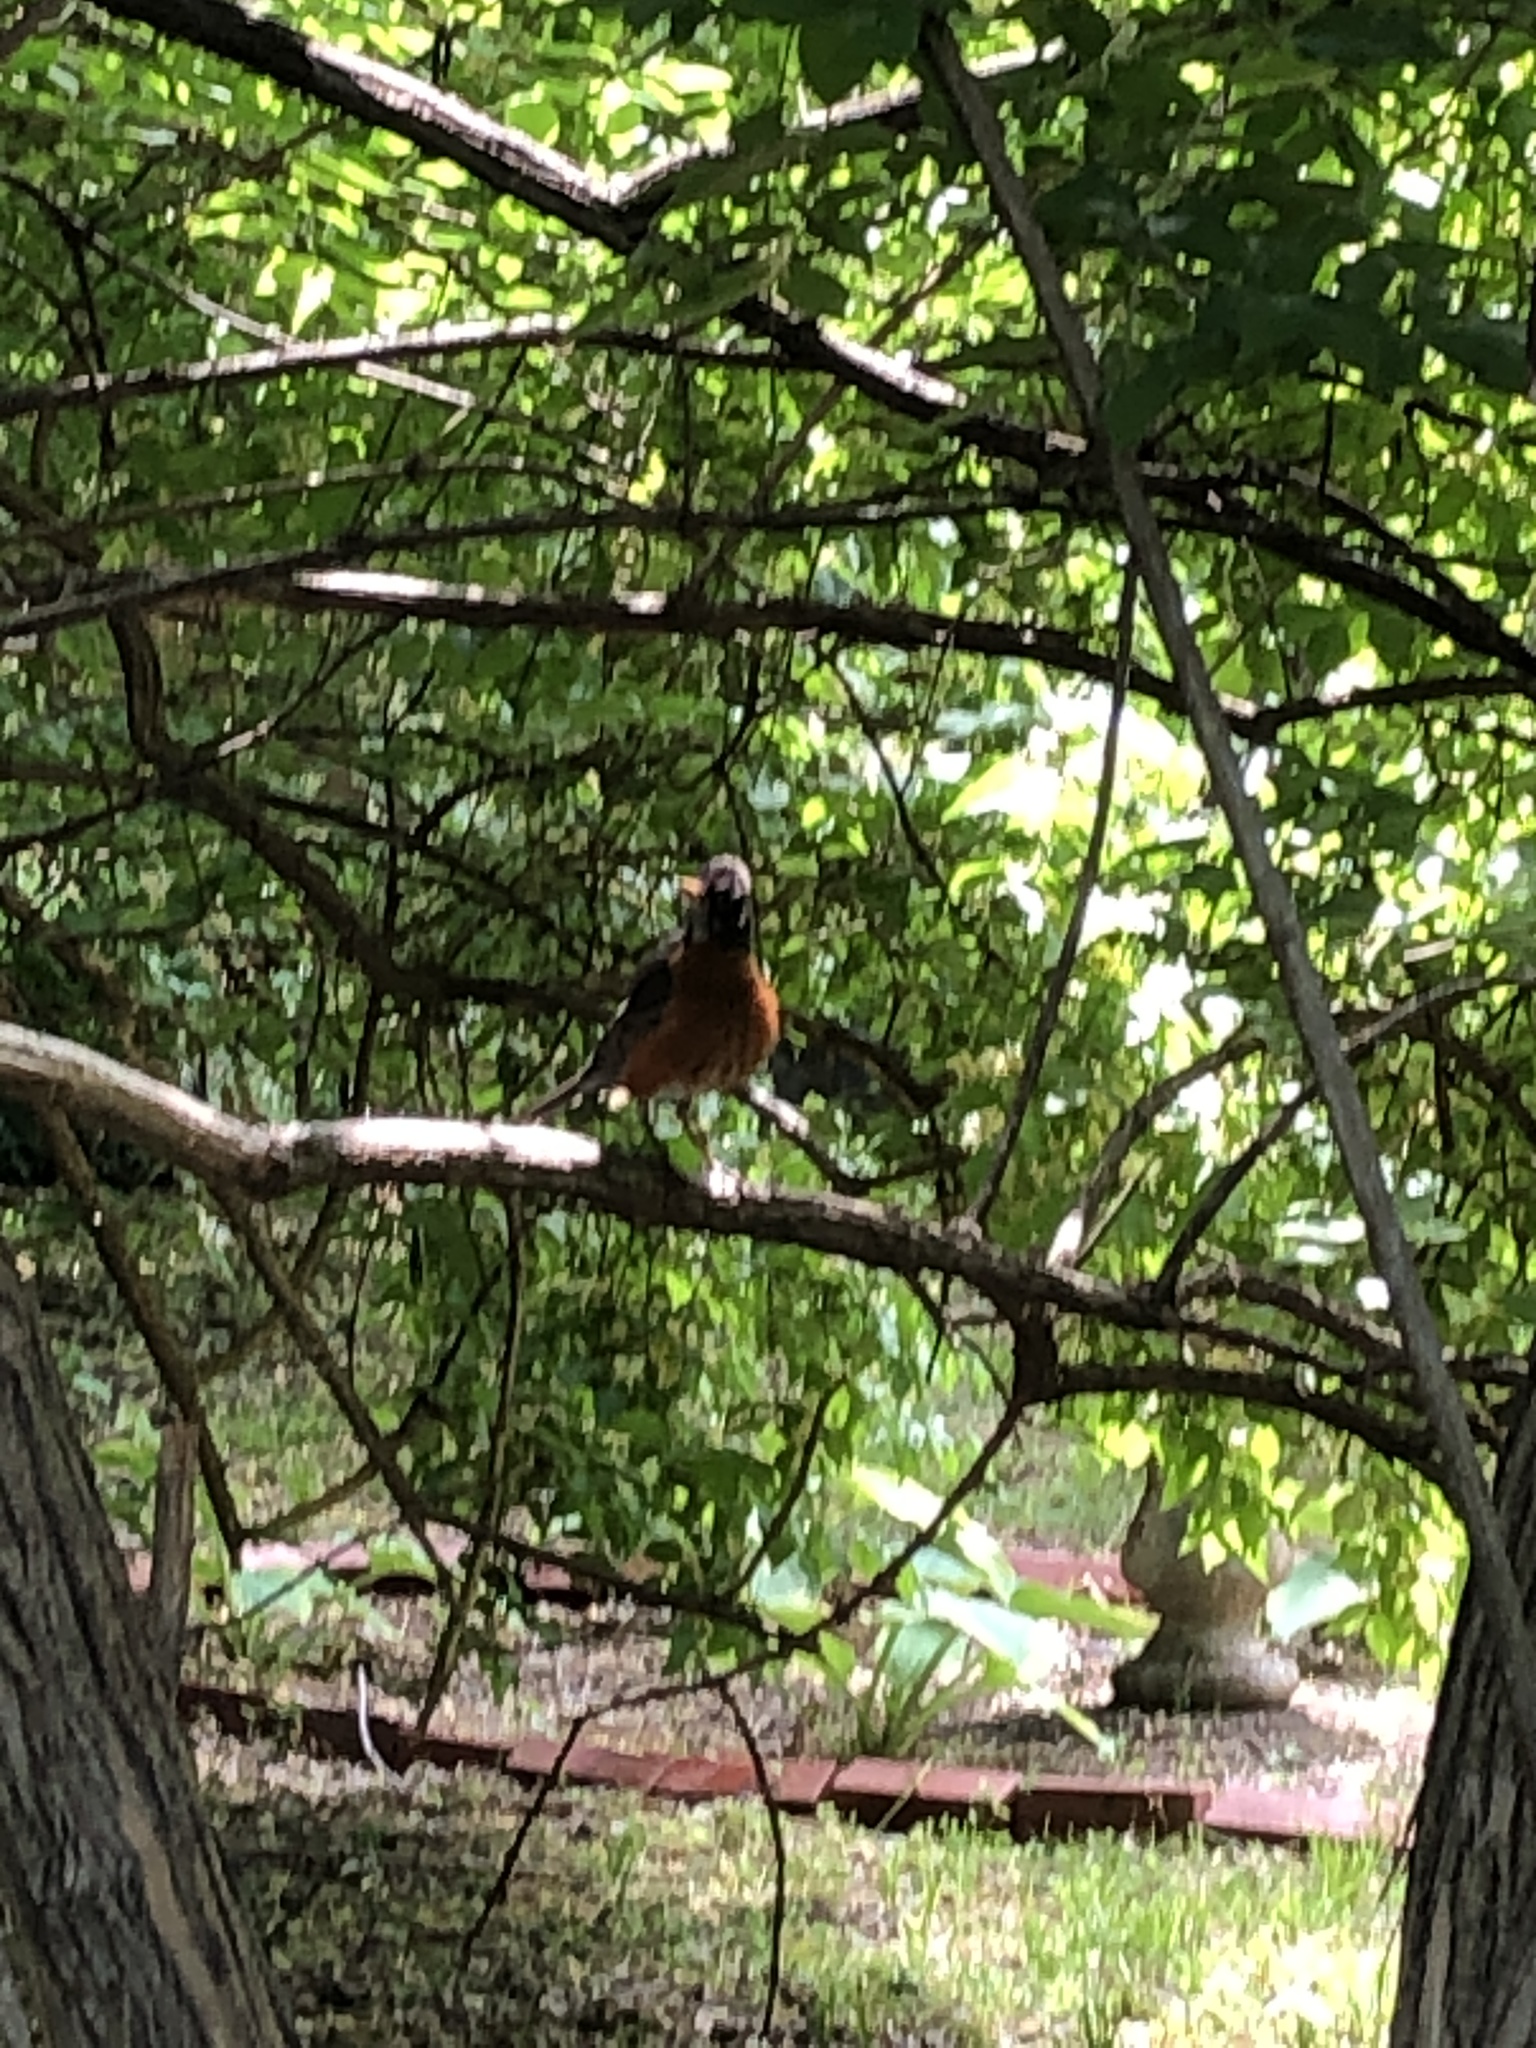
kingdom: Animalia
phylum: Chordata
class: Aves
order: Passeriformes
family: Turdidae
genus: Turdus
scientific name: Turdus migratorius
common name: American robin
